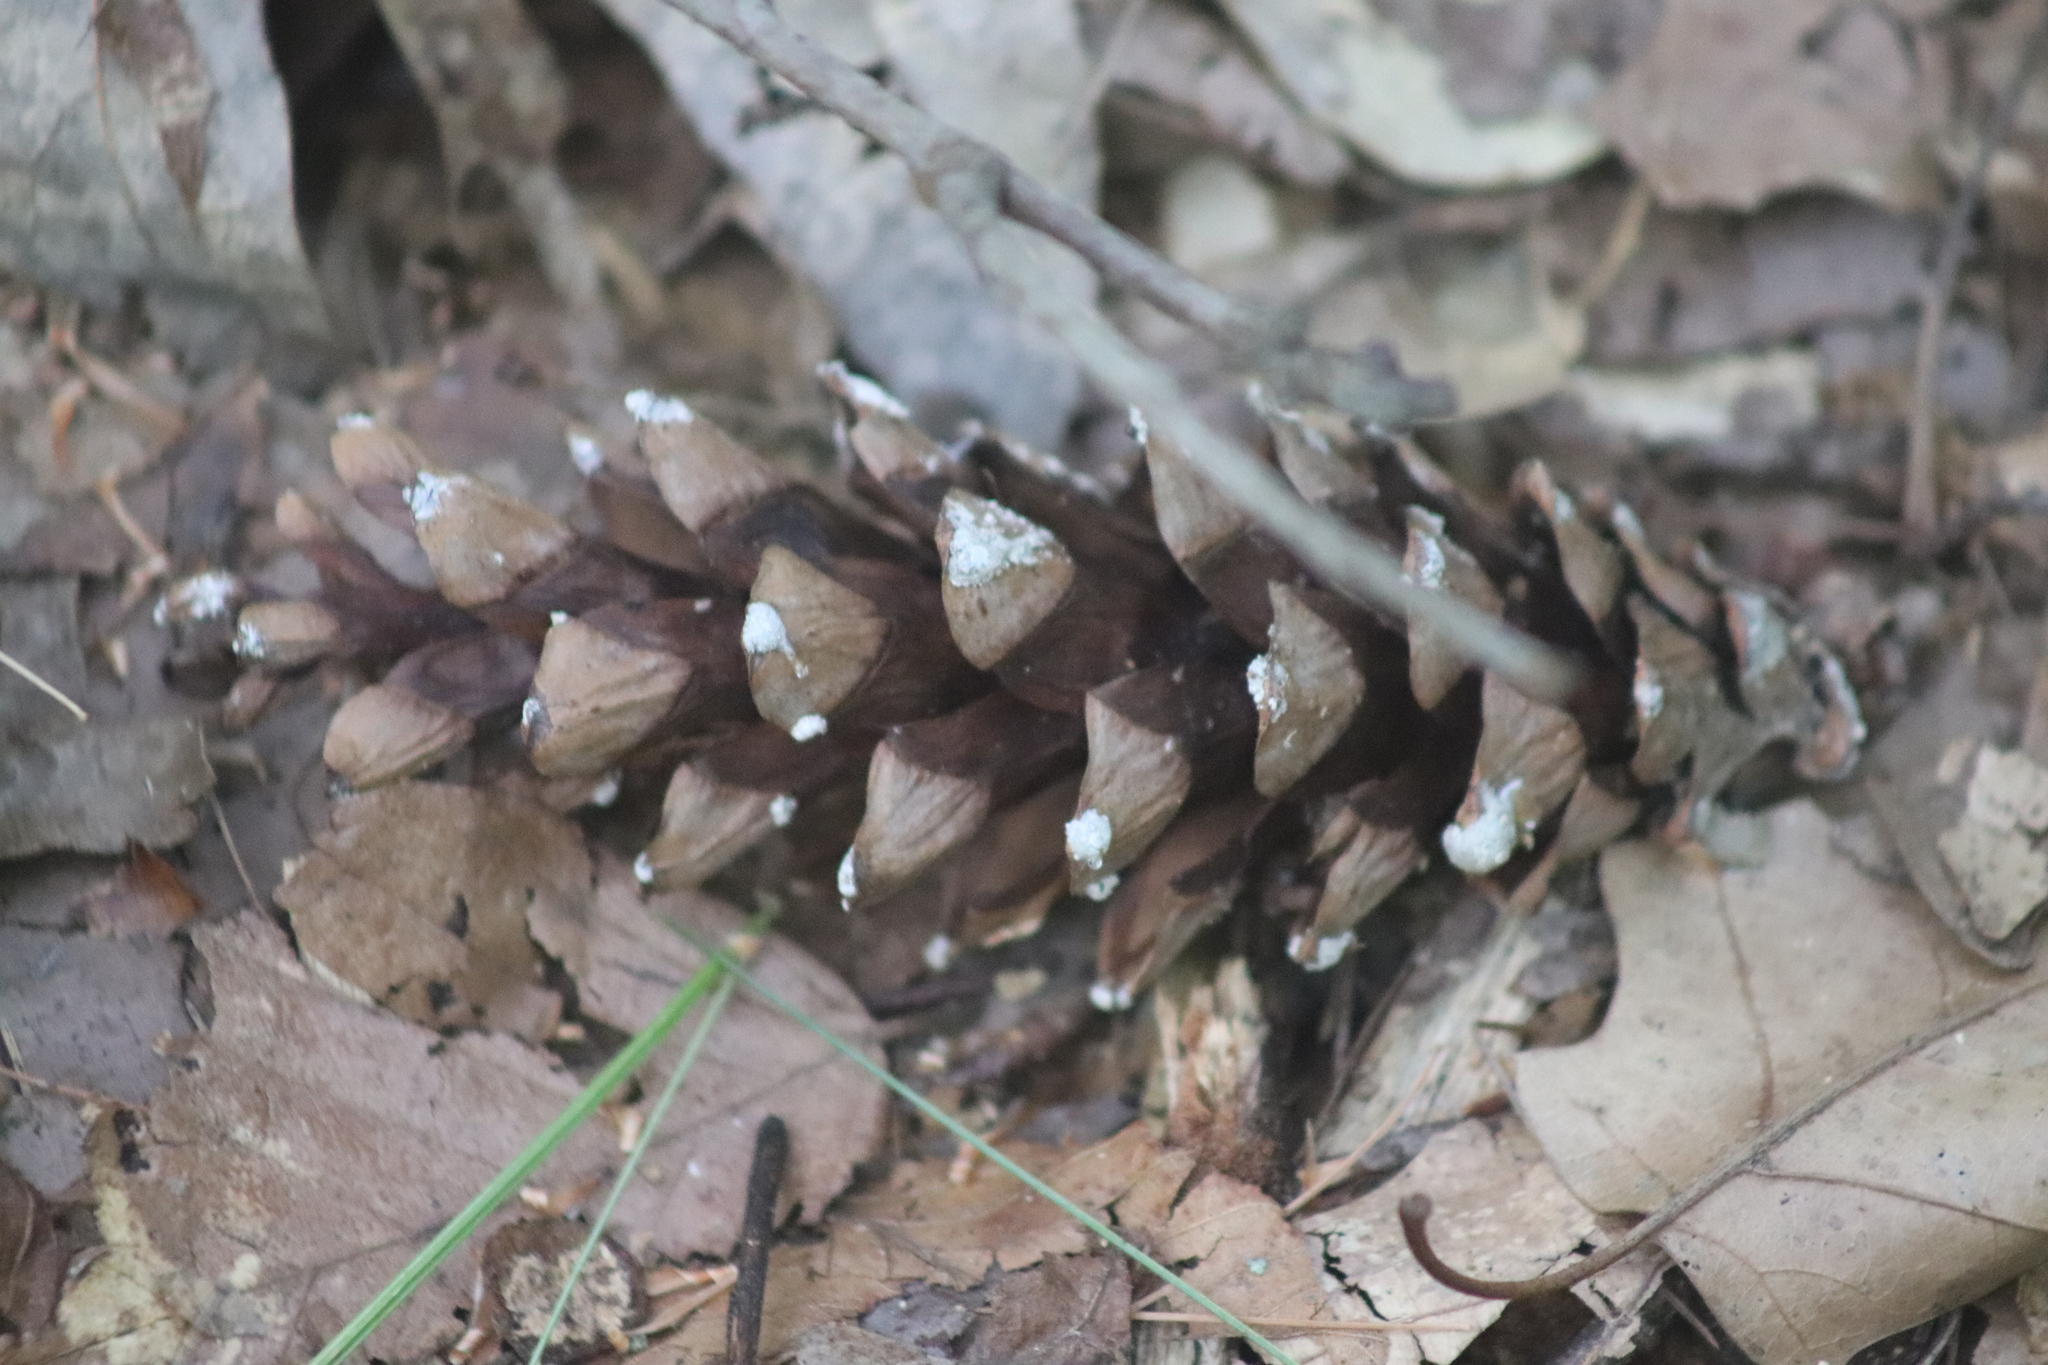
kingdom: Plantae
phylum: Tracheophyta
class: Pinopsida
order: Pinales
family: Pinaceae
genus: Pinus
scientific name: Pinus strobus
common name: Weymouth pine
